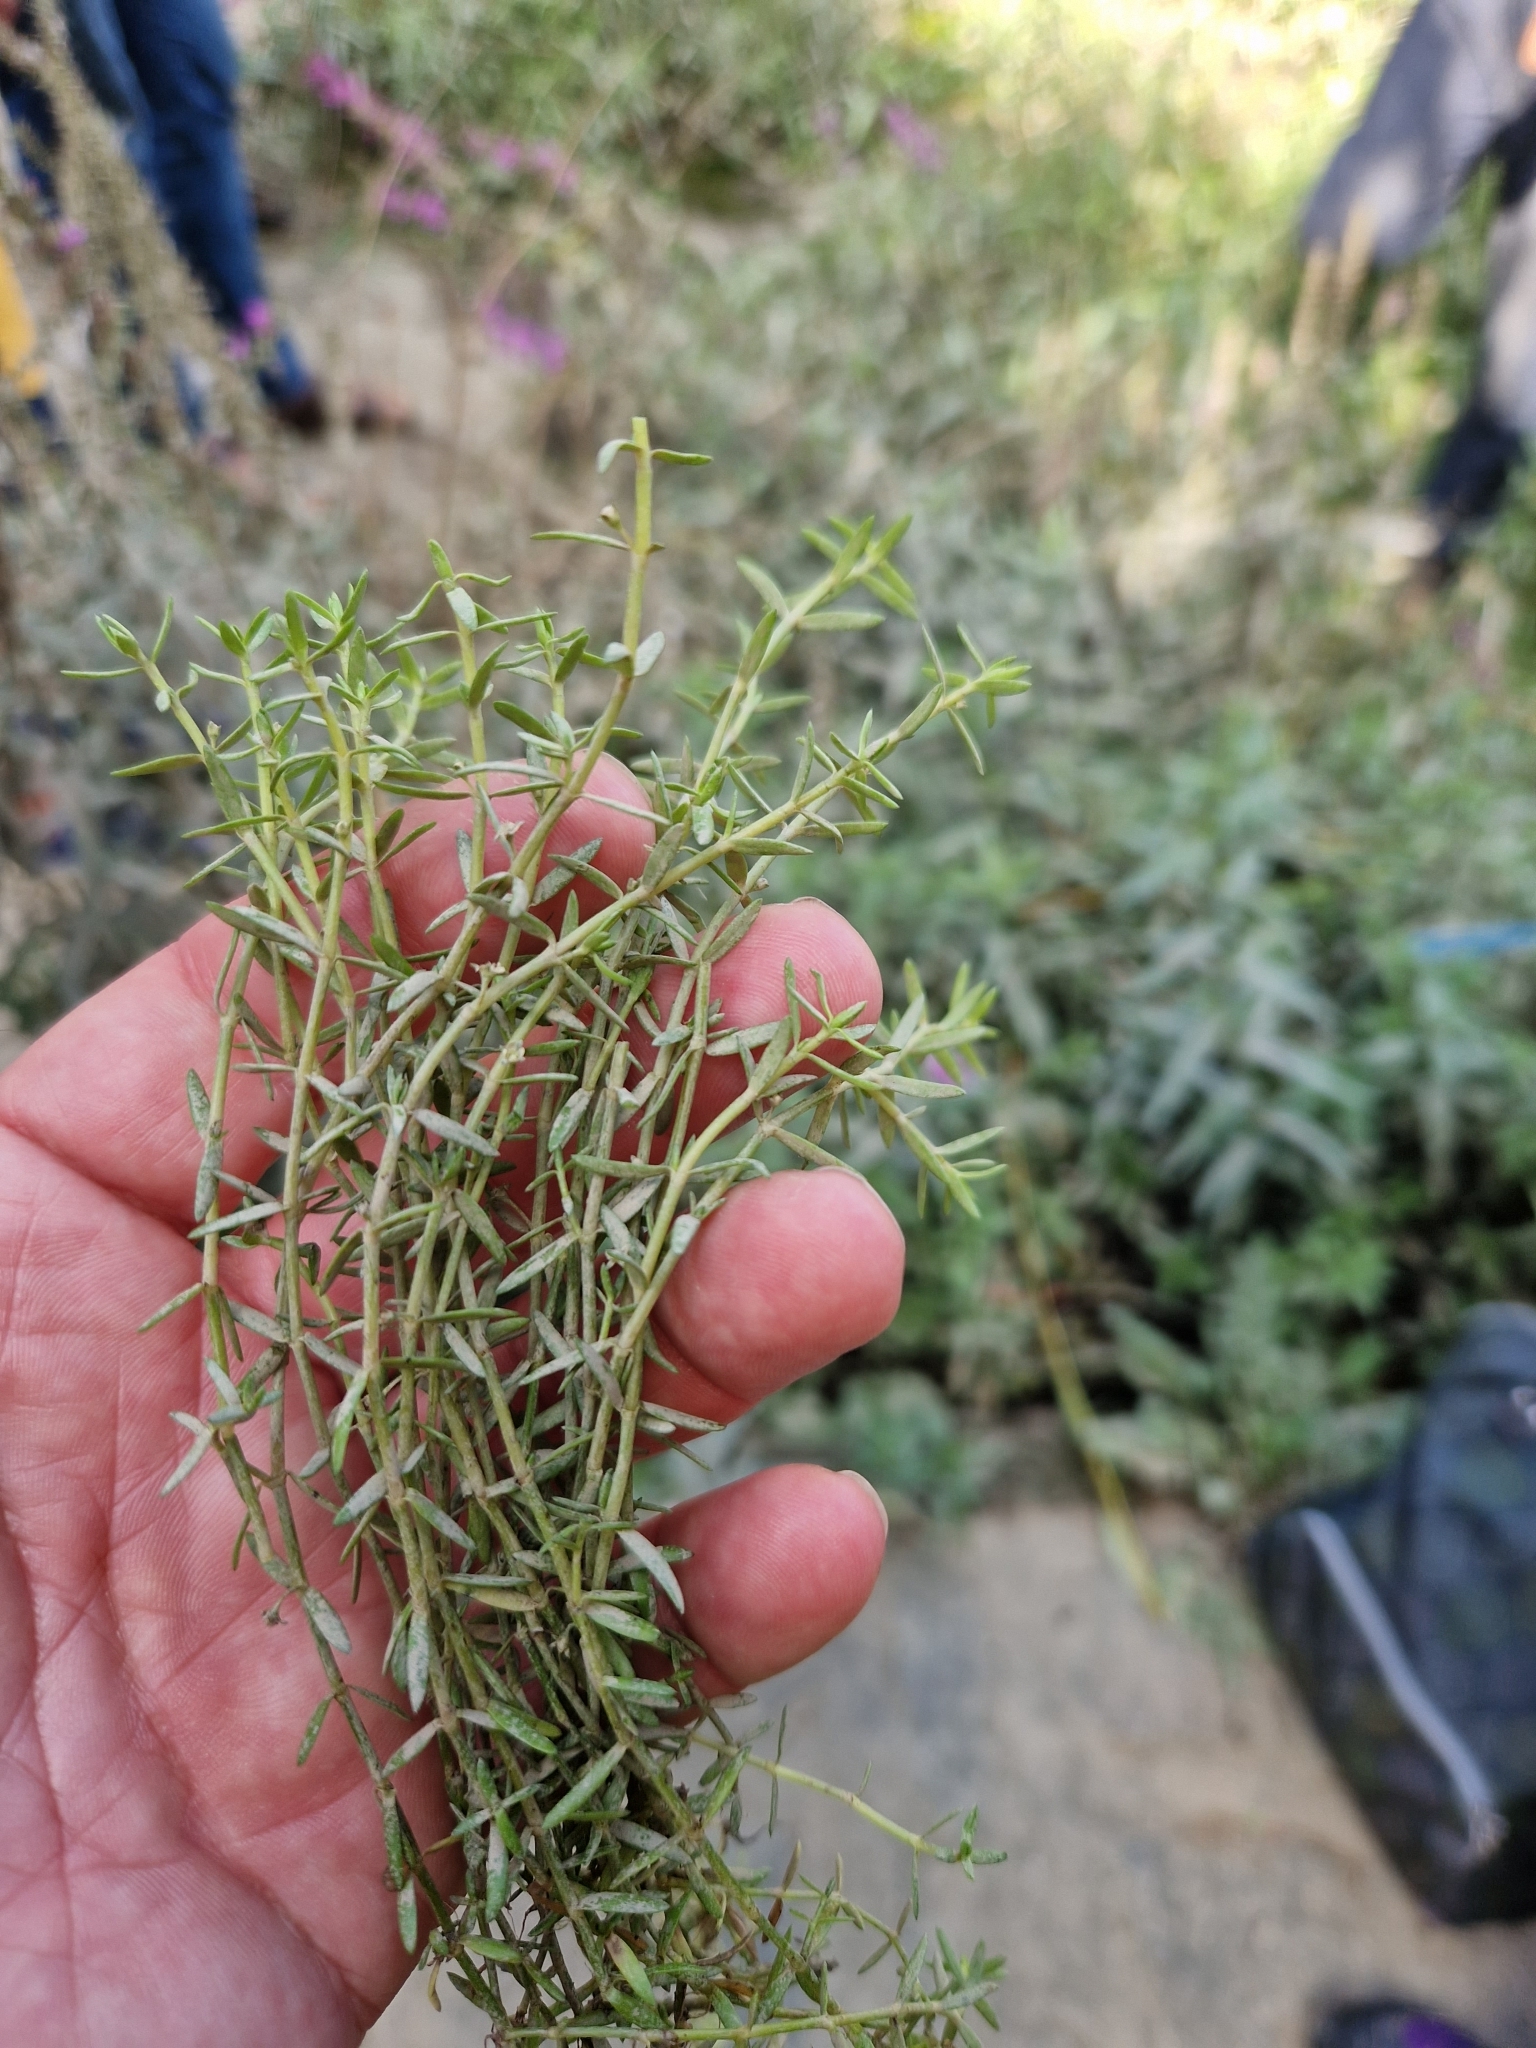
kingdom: Plantae
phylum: Tracheophyta
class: Magnoliopsida
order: Saxifragales
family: Crassulaceae
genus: Crassula
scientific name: Crassula helmsii
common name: New zealand pigmyweed
